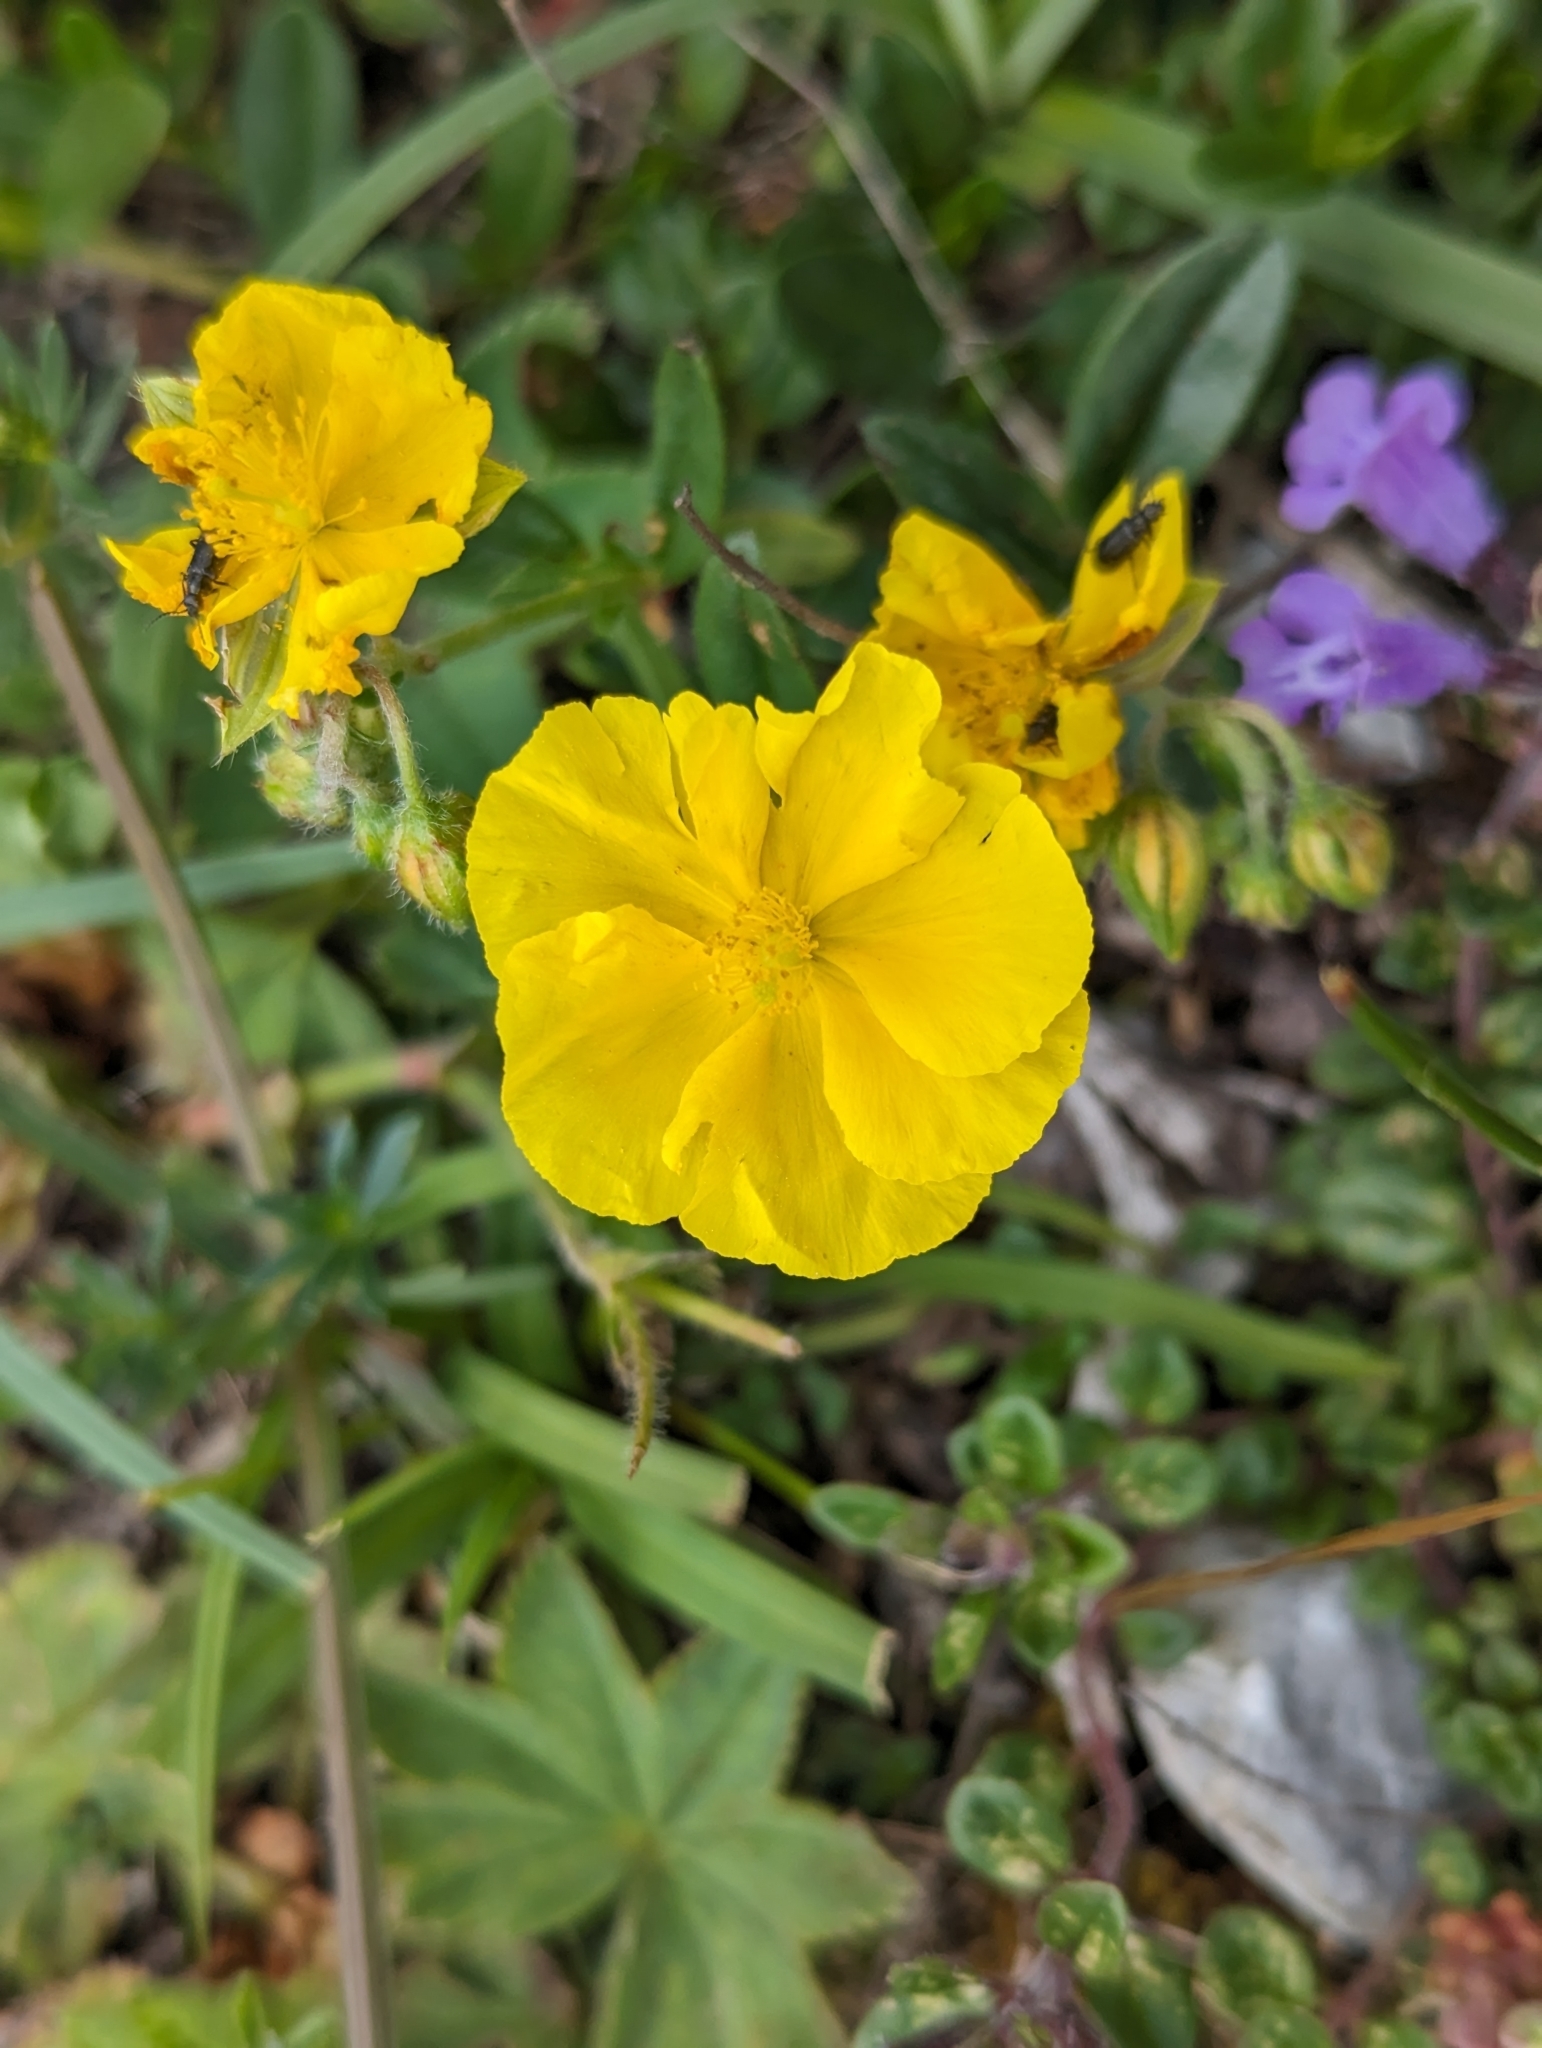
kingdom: Plantae
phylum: Tracheophyta
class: Magnoliopsida
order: Malvales
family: Cistaceae
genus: Helianthemum
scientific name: Helianthemum nummularium
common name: Common rock-rose
